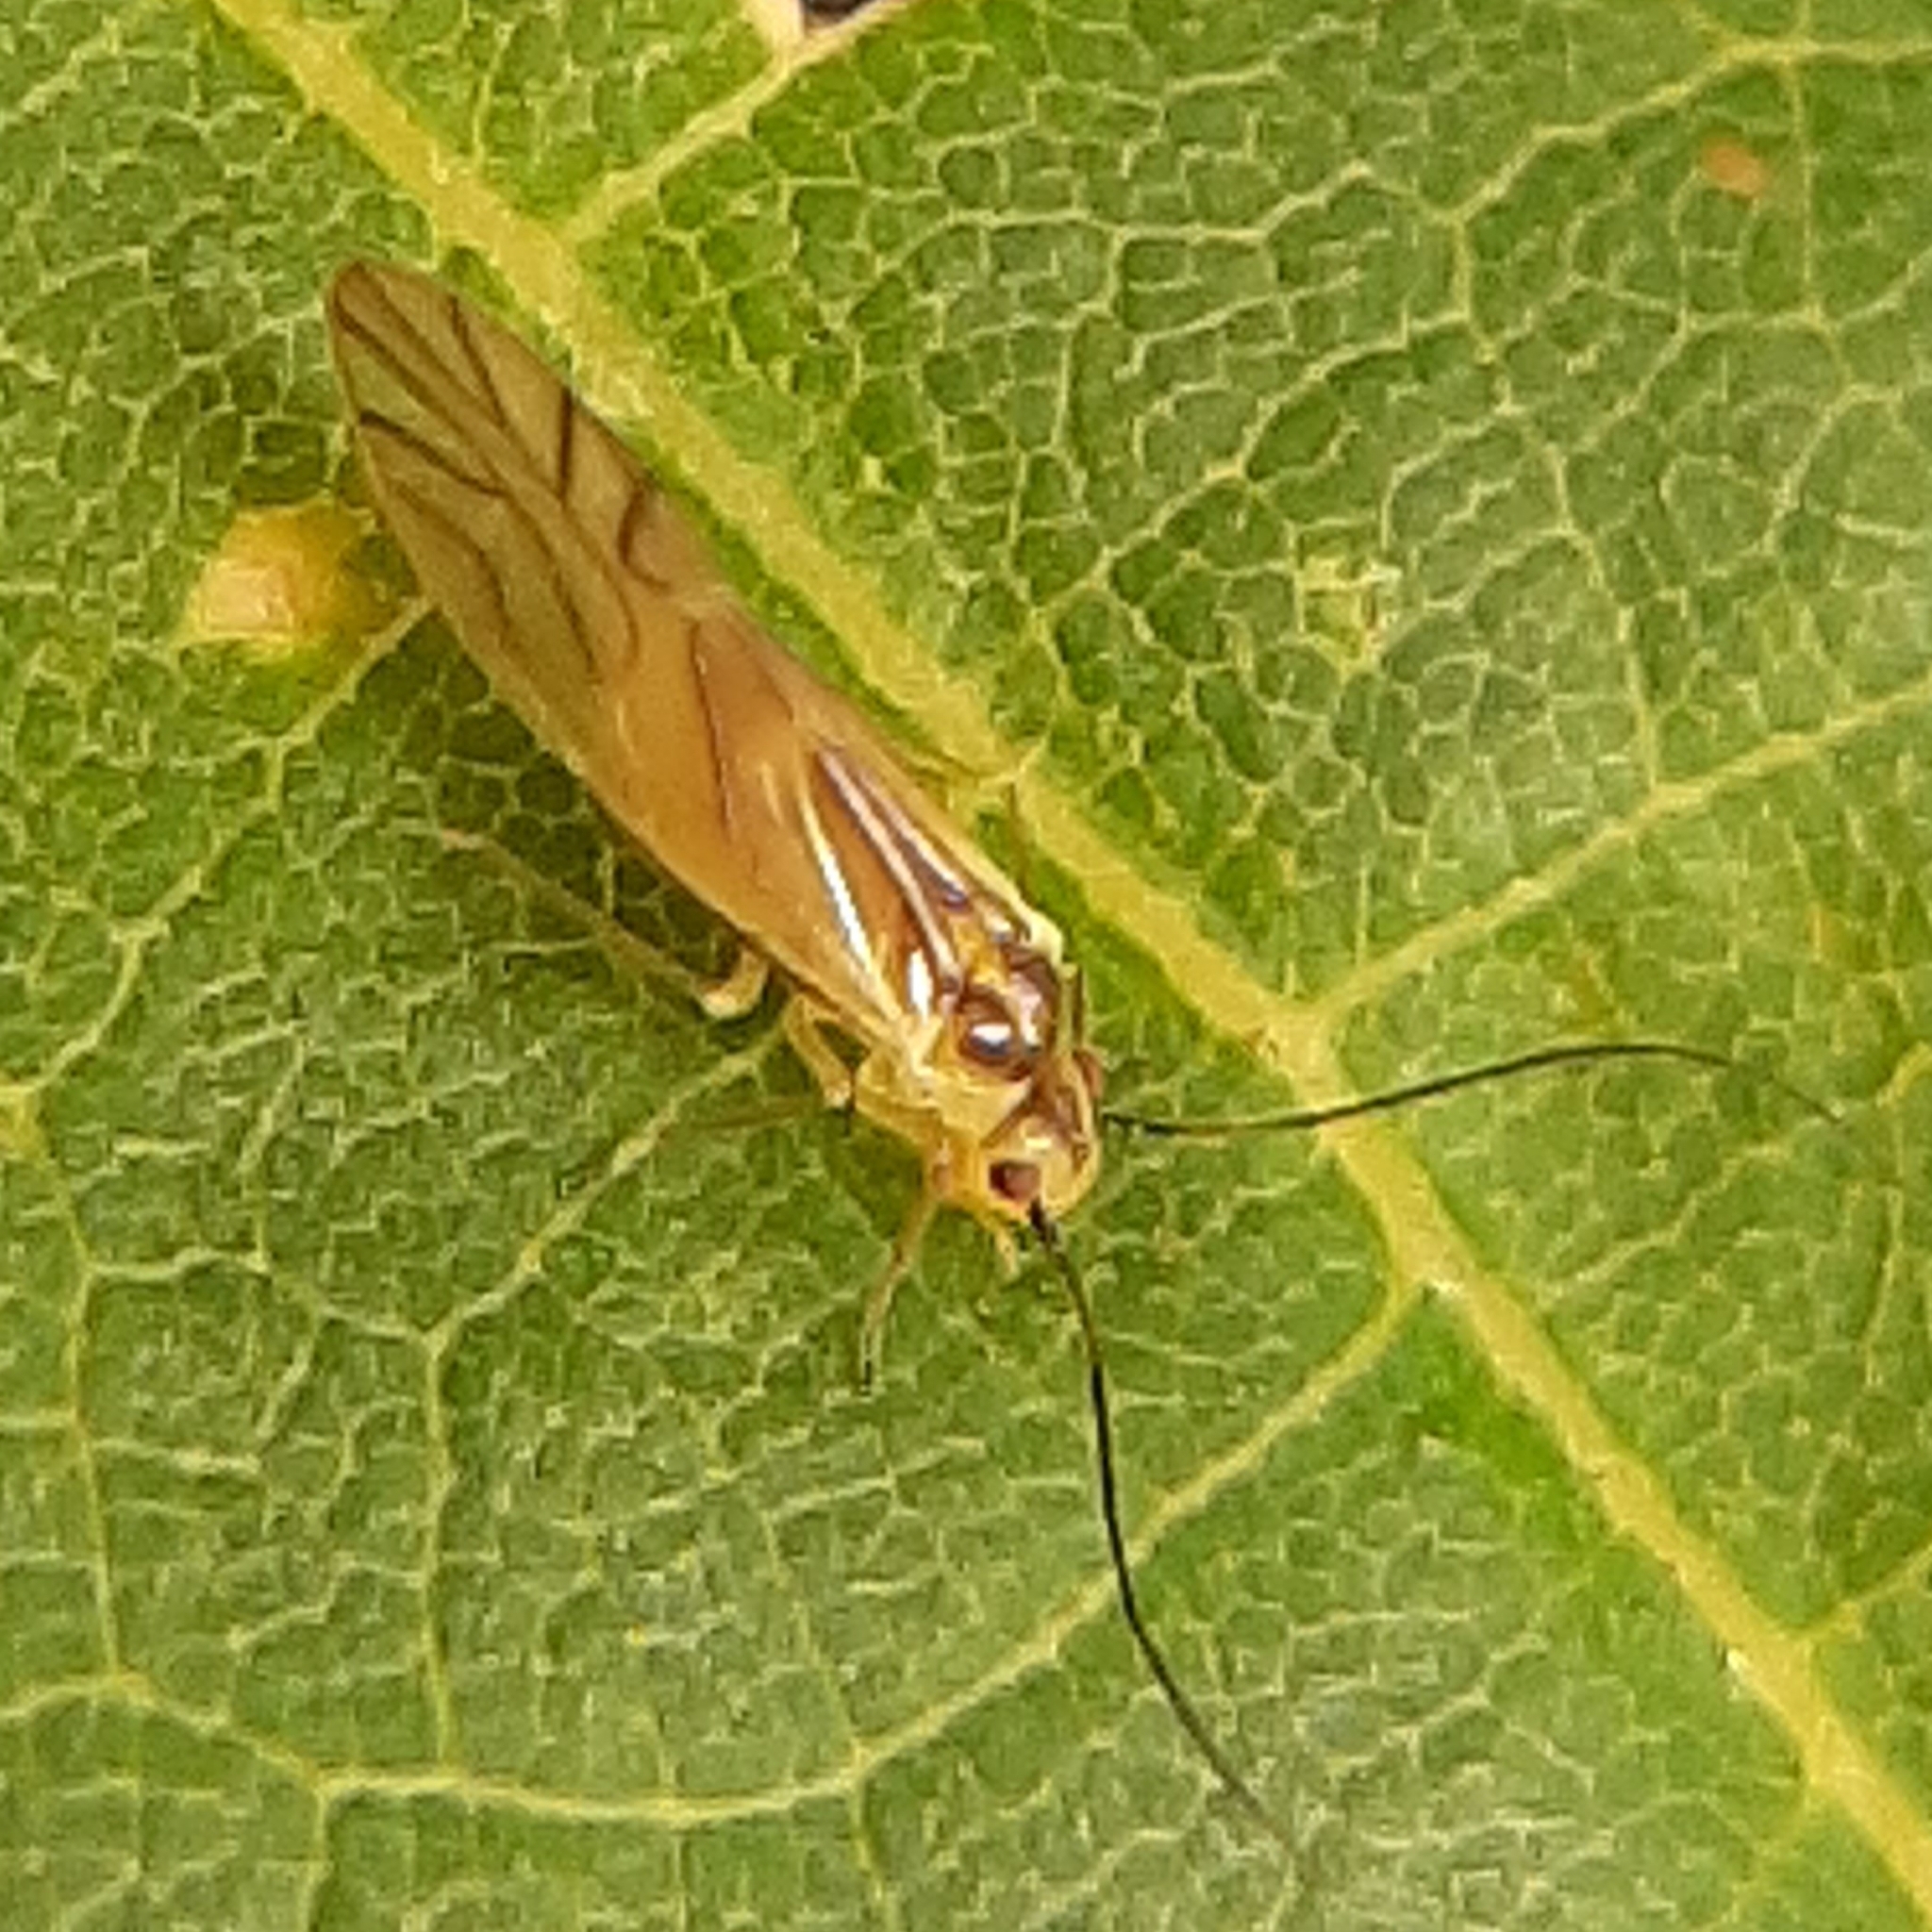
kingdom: Animalia
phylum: Arthropoda
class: Insecta
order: Psocodea
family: Caeciliusidae
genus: Valenzuela
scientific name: Valenzuela flavidus
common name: Yellow barklouse
